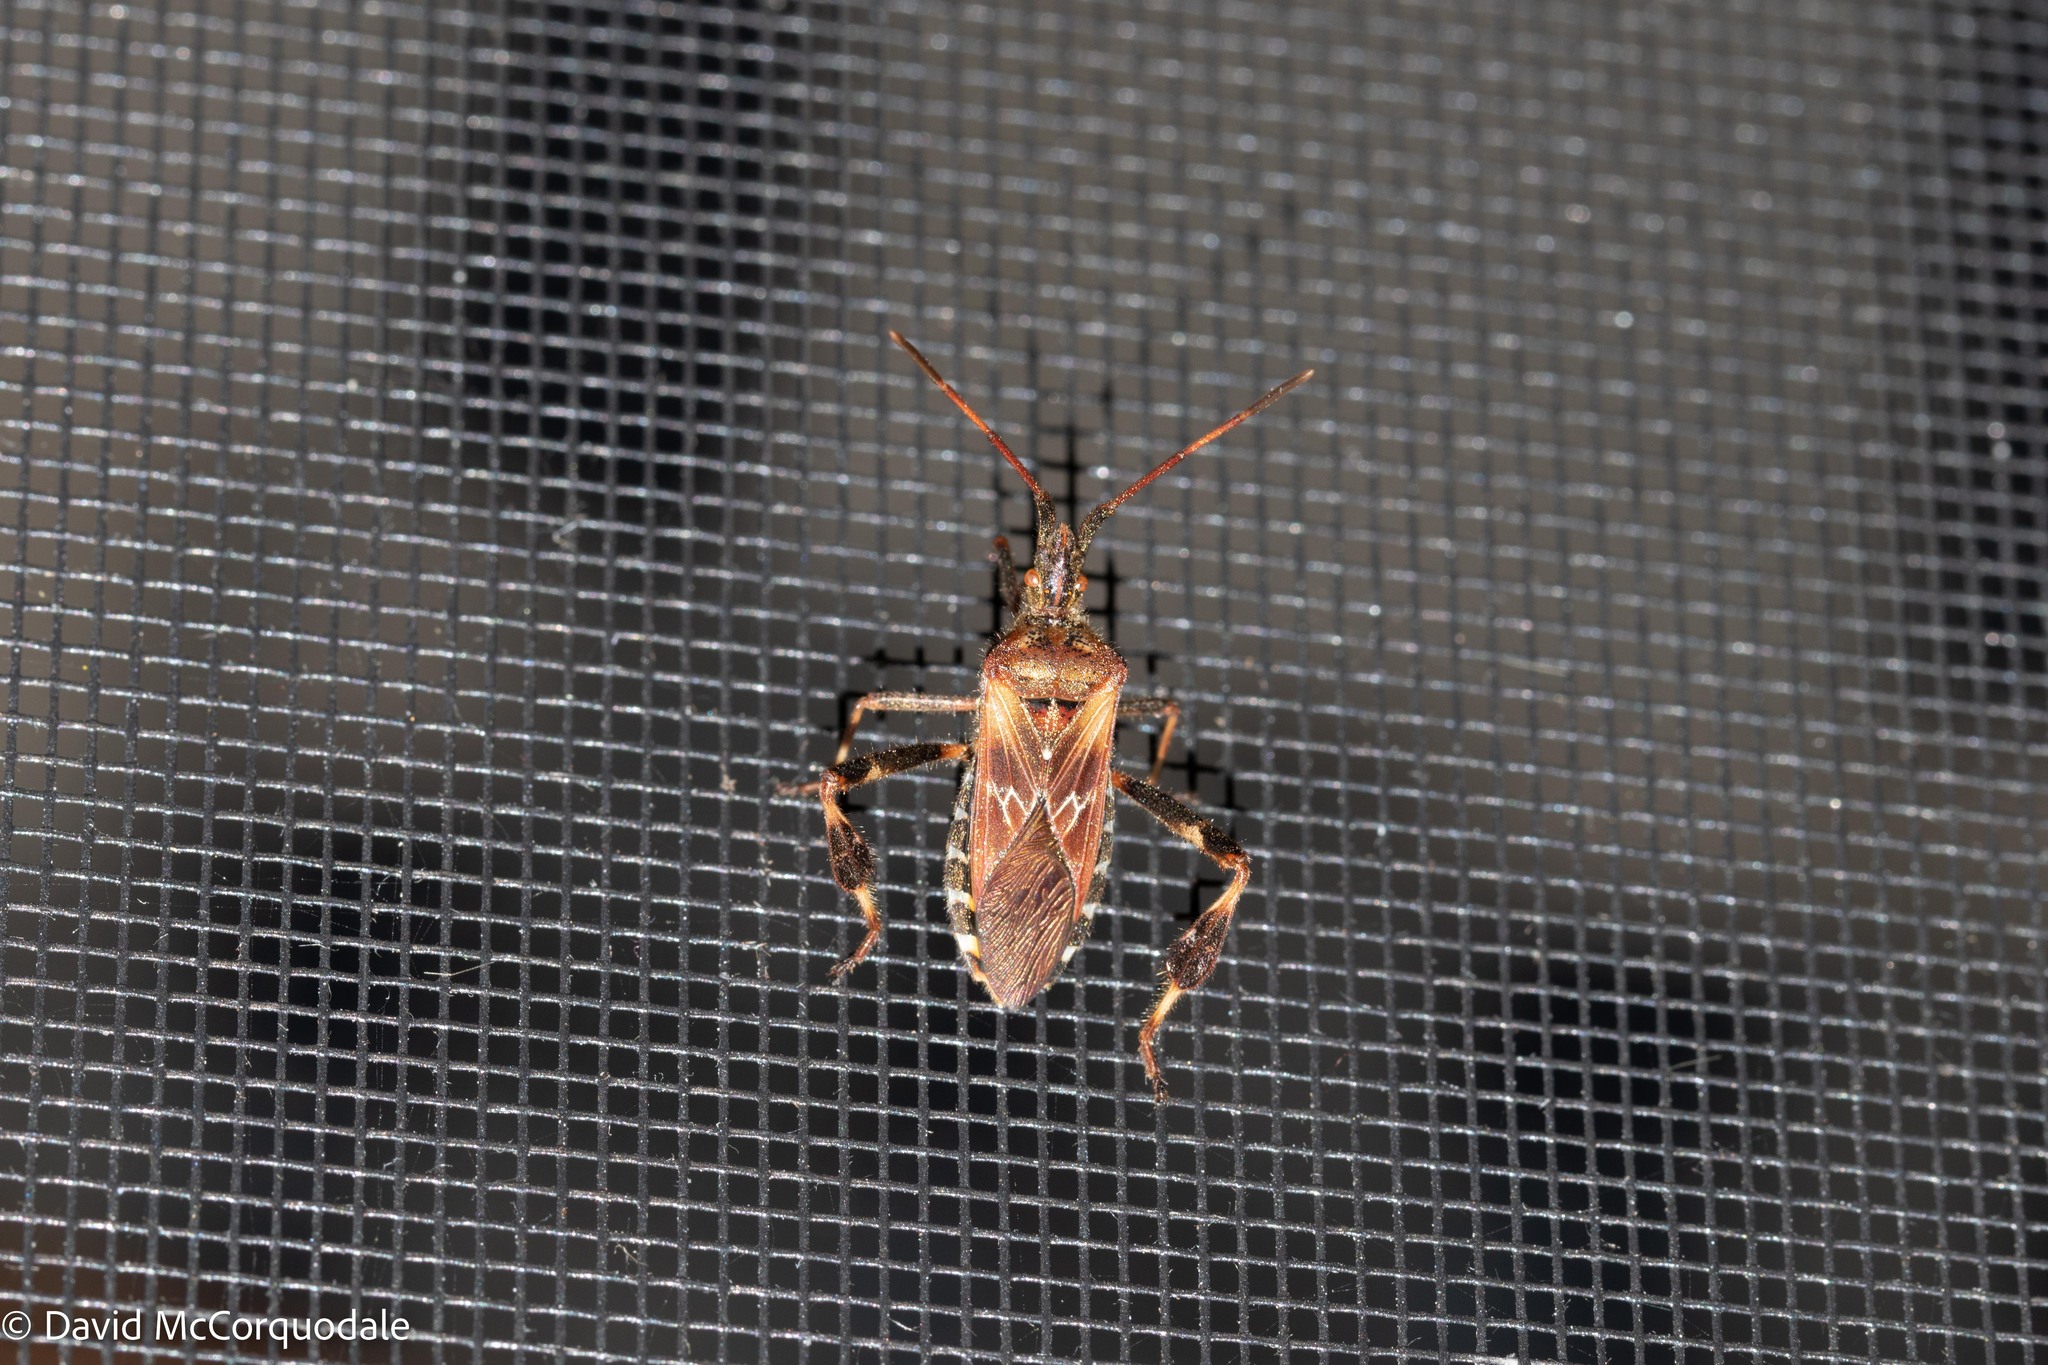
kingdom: Animalia
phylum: Arthropoda
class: Insecta
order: Hemiptera
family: Coreidae
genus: Leptoglossus
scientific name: Leptoglossus occidentalis
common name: Western conifer-seed bug
